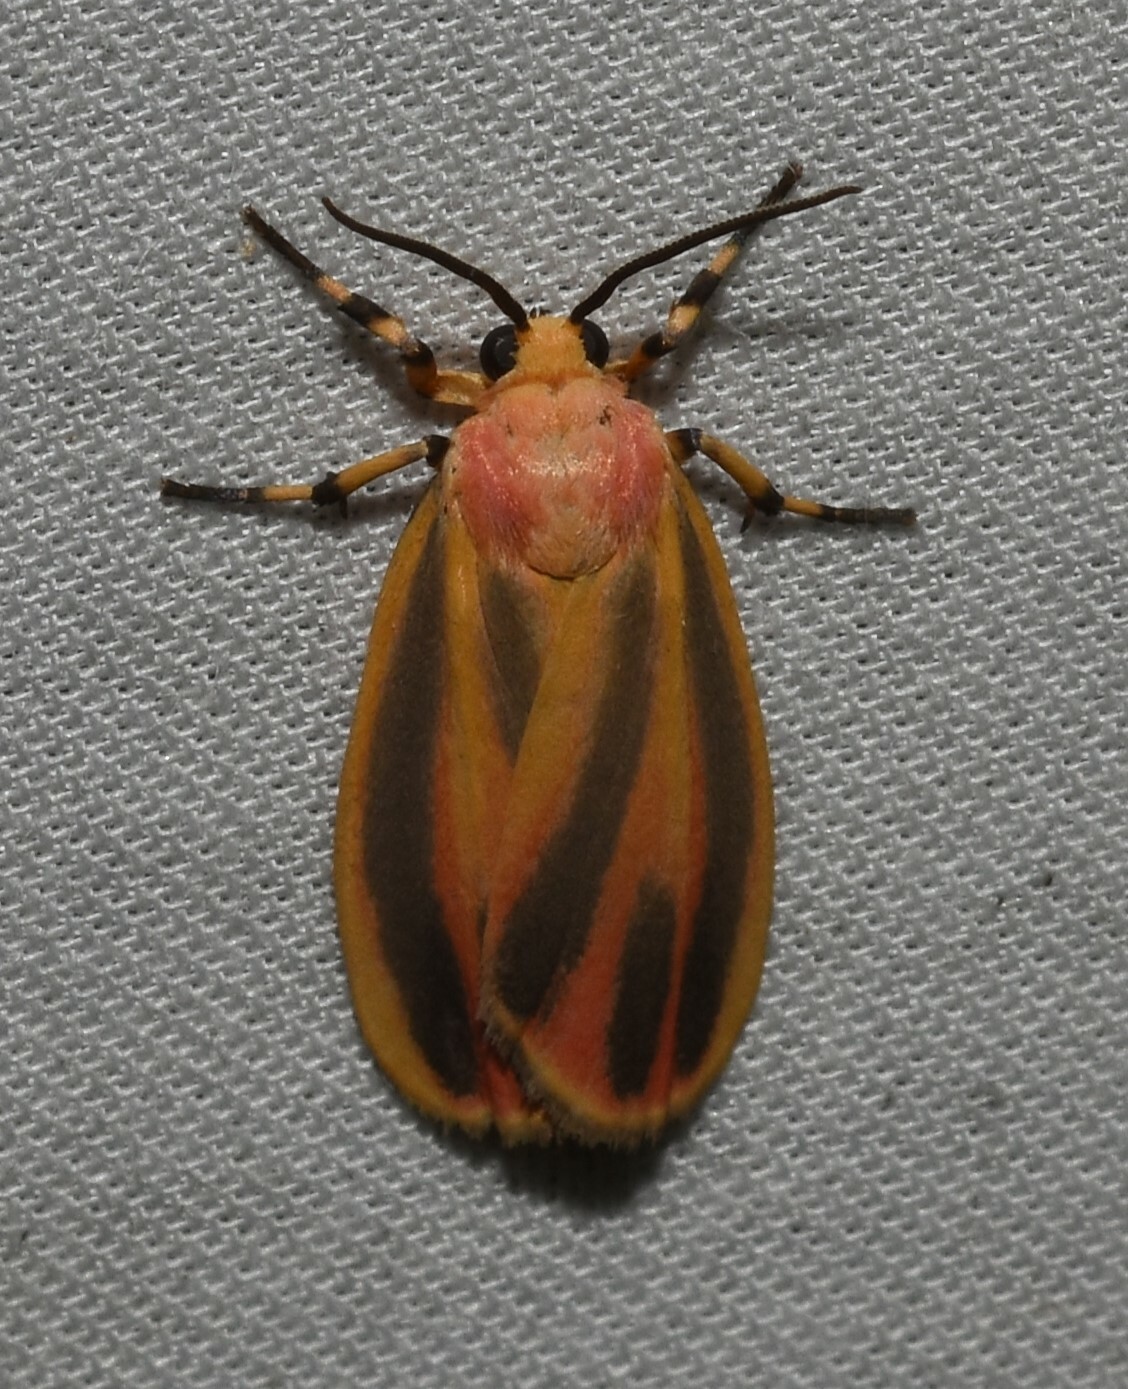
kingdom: Animalia
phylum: Arthropoda
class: Insecta
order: Lepidoptera
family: Erebidae
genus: Hypoprepia
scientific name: Hypoprepia fucosa
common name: Painted lichen moth
